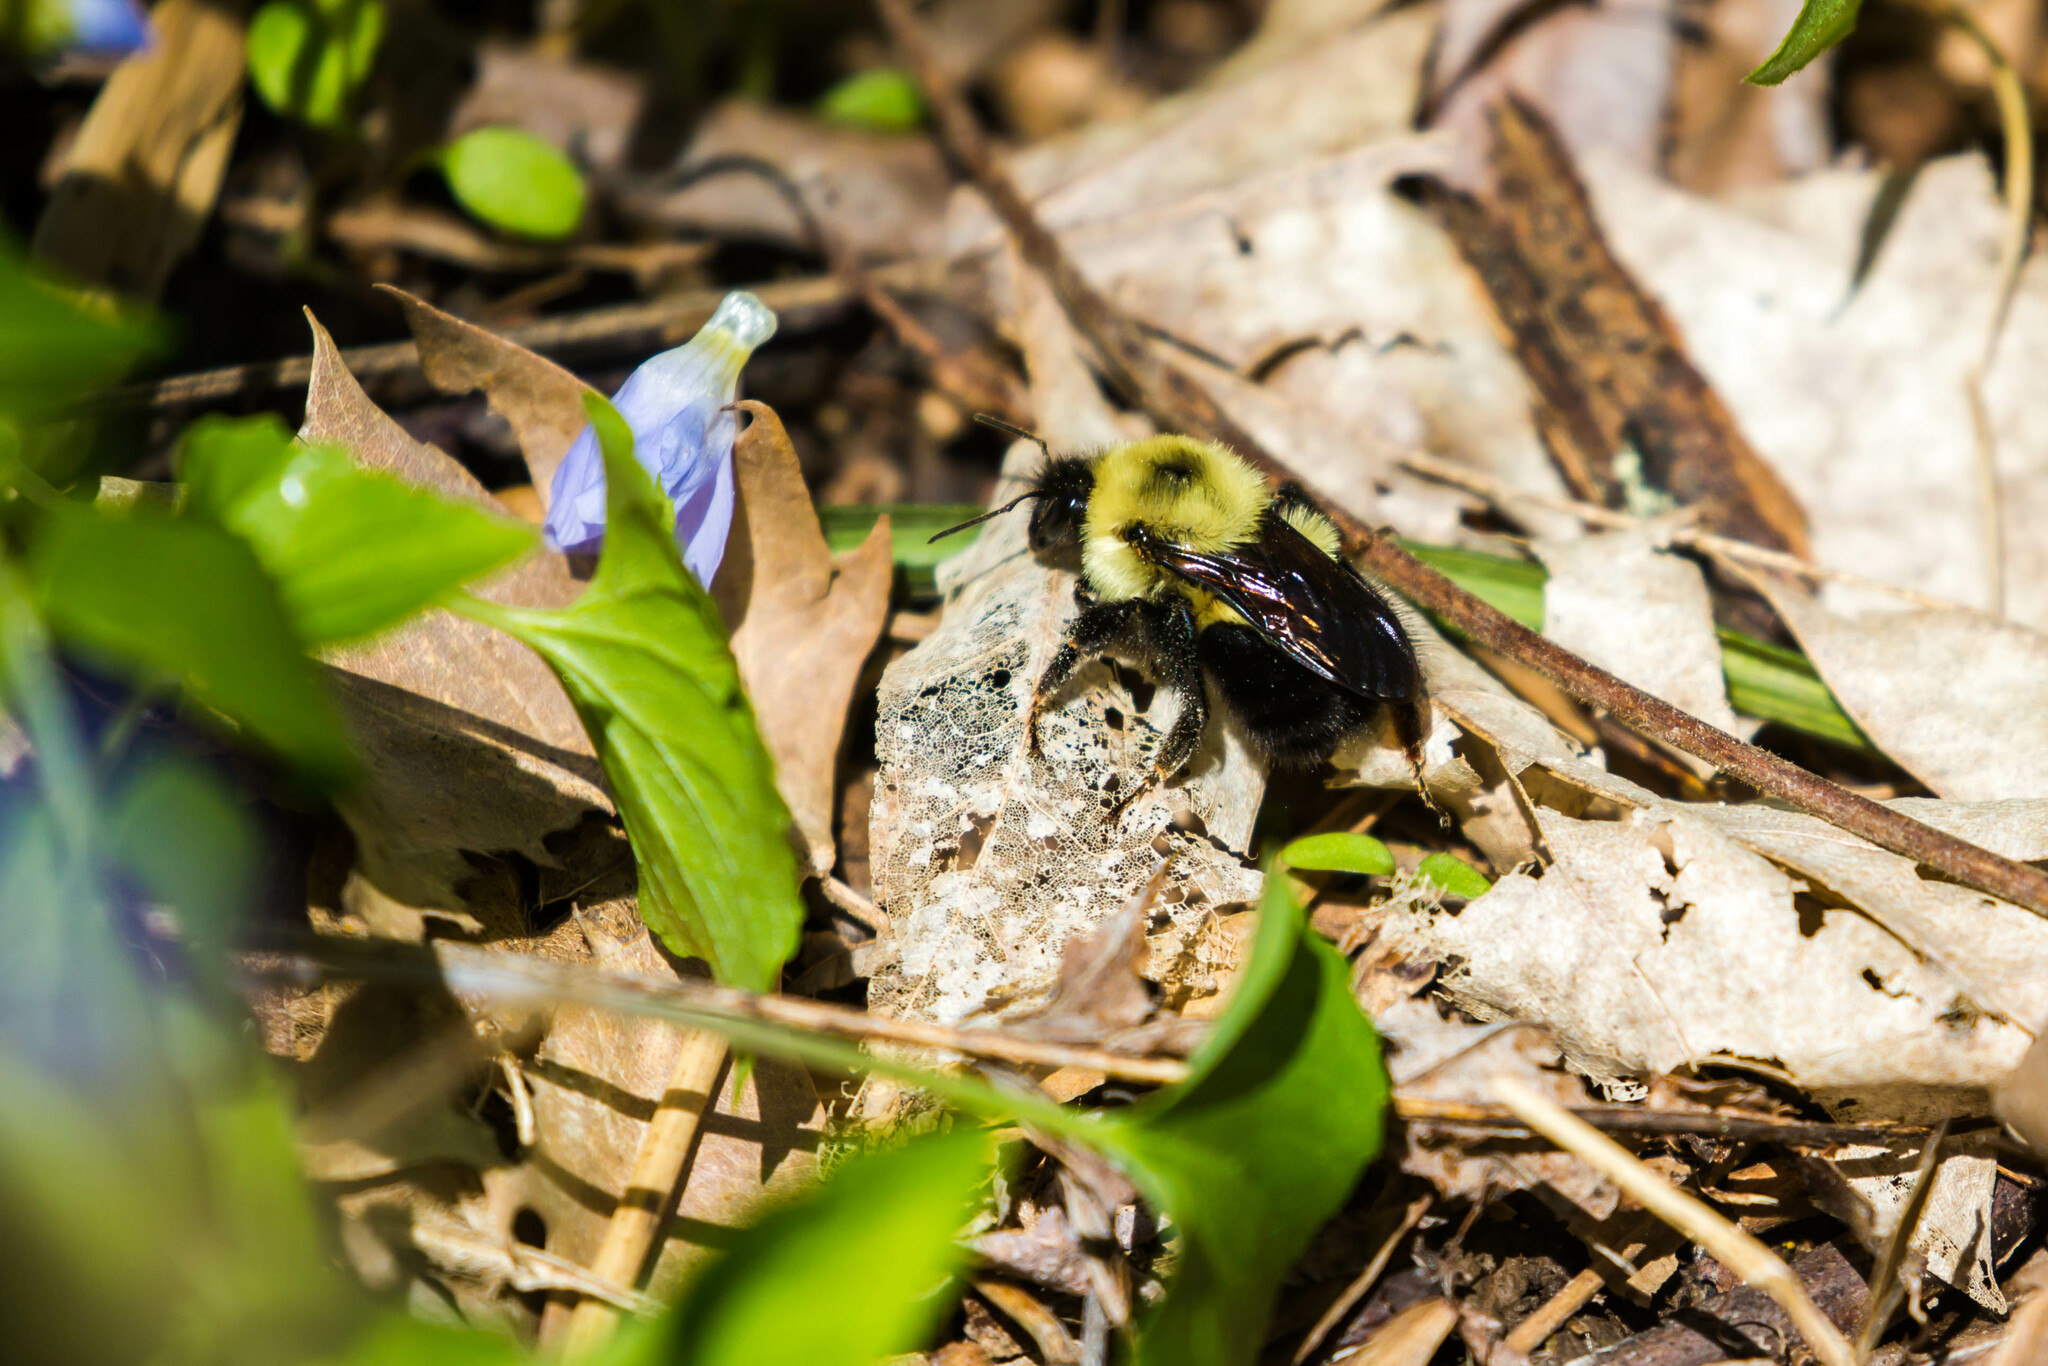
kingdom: Animalia
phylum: Arthropoda
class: Insecta
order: Hymenoptera
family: Apidae
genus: Bombus
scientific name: Bombus bimaculatus
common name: Two-spotted bumble bee
